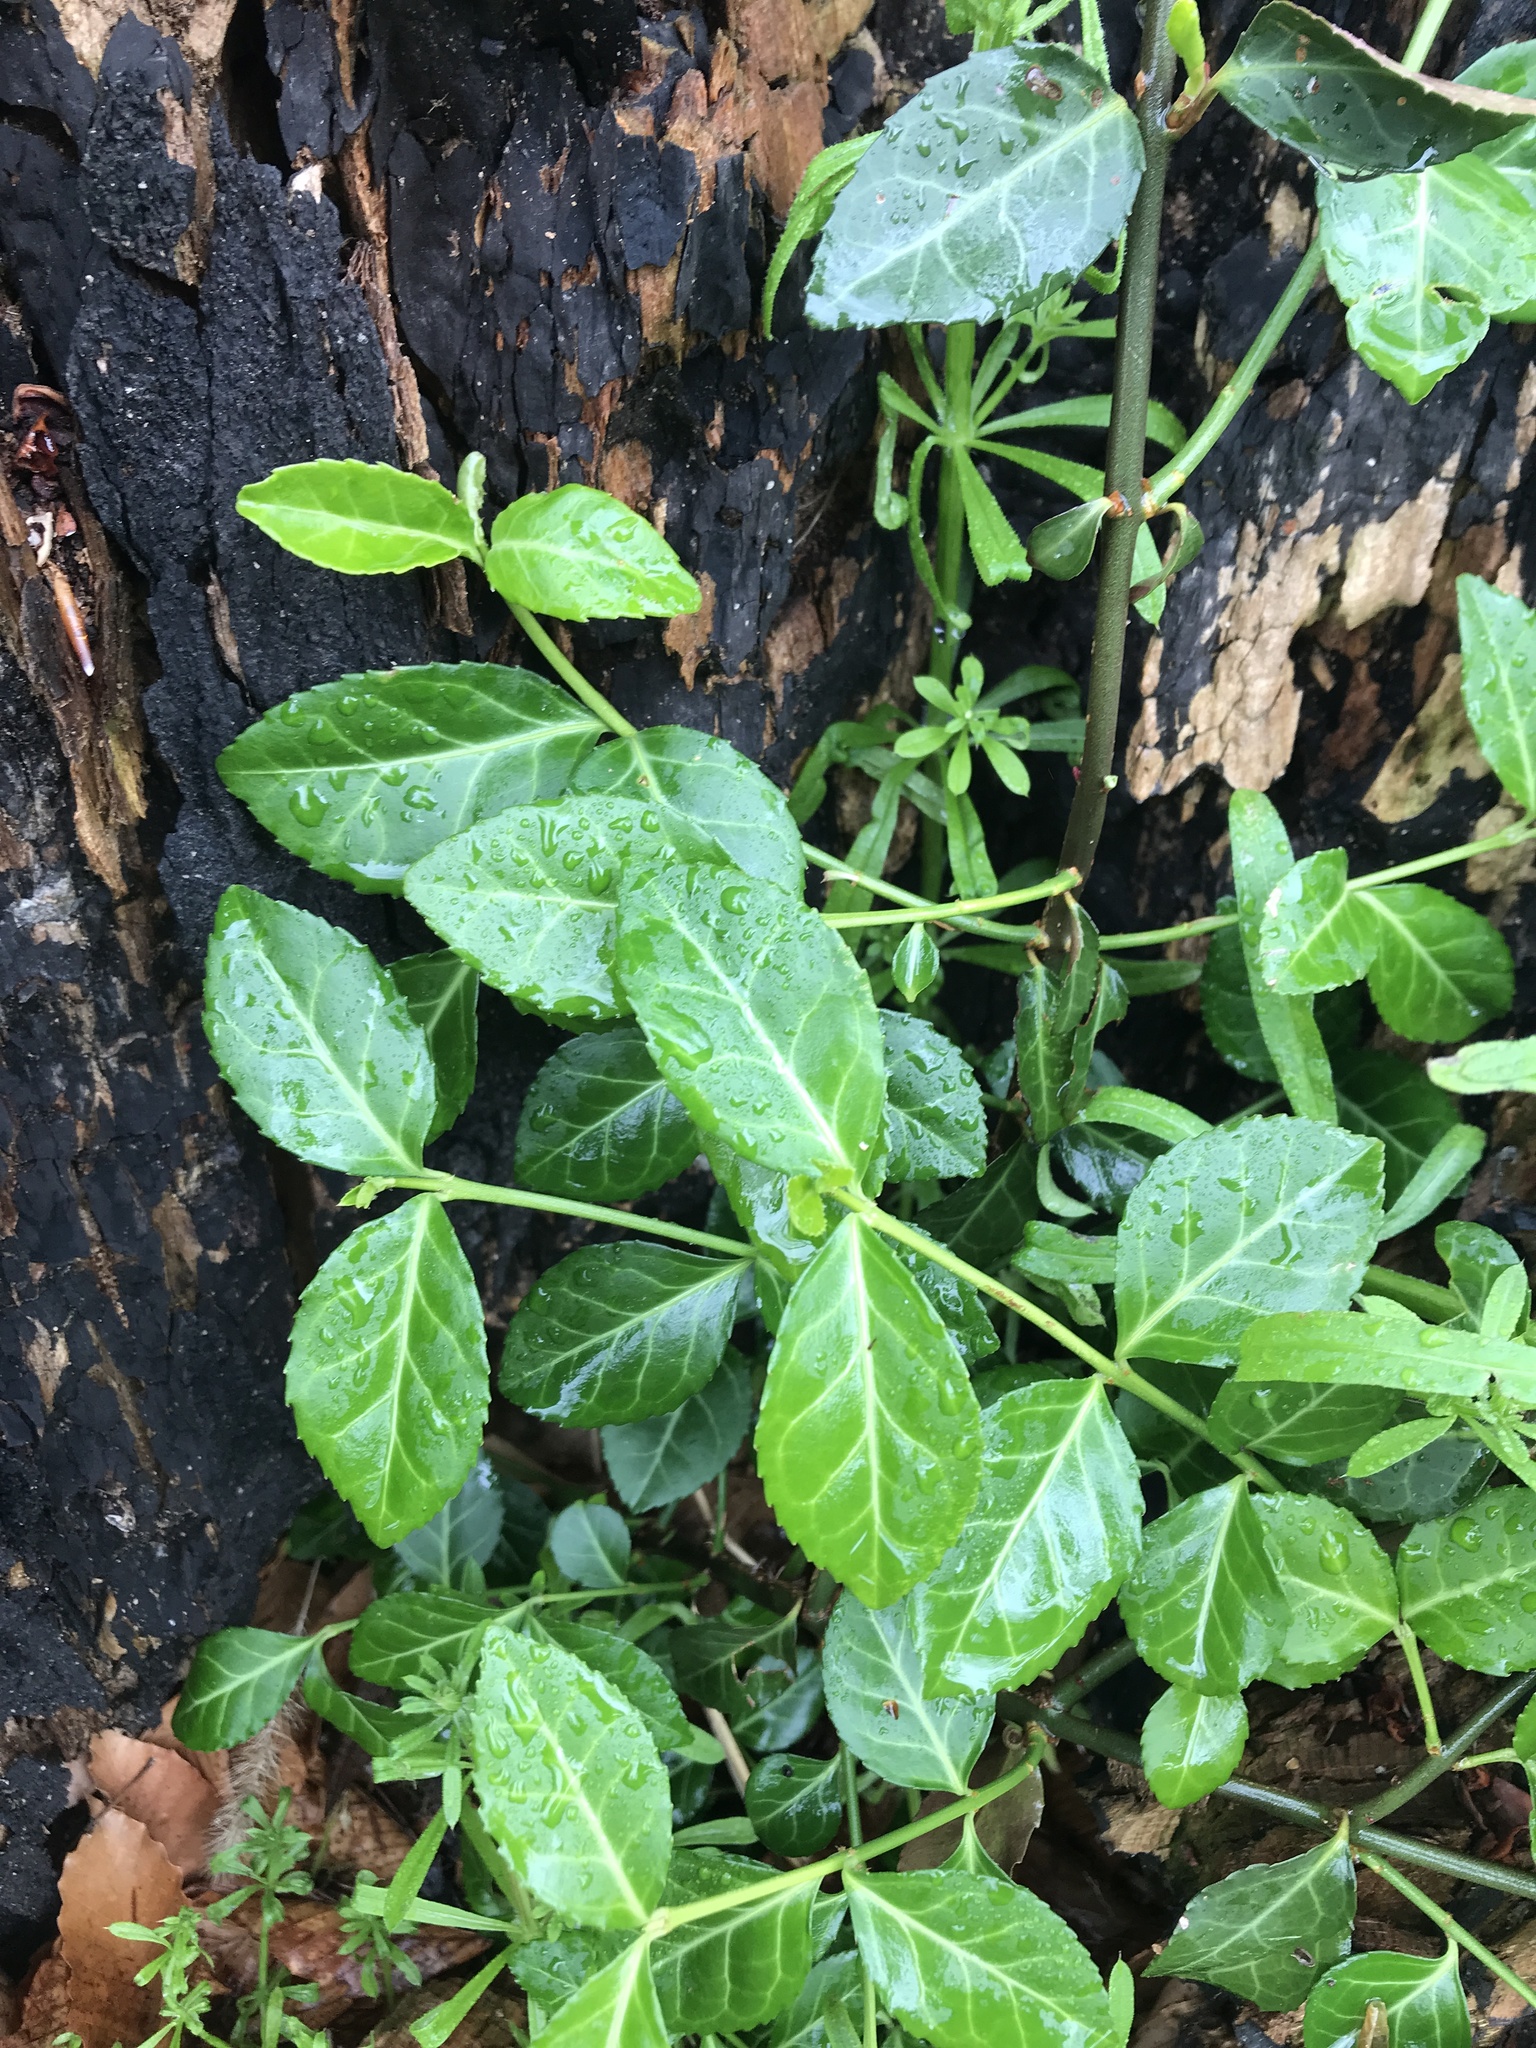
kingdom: Plantae
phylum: Tracheophyta
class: Magnoliopsida
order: Celastrales
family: Celastraceae
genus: Euonymus
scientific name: Euonymus fortunei
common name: Climbing euonymus
